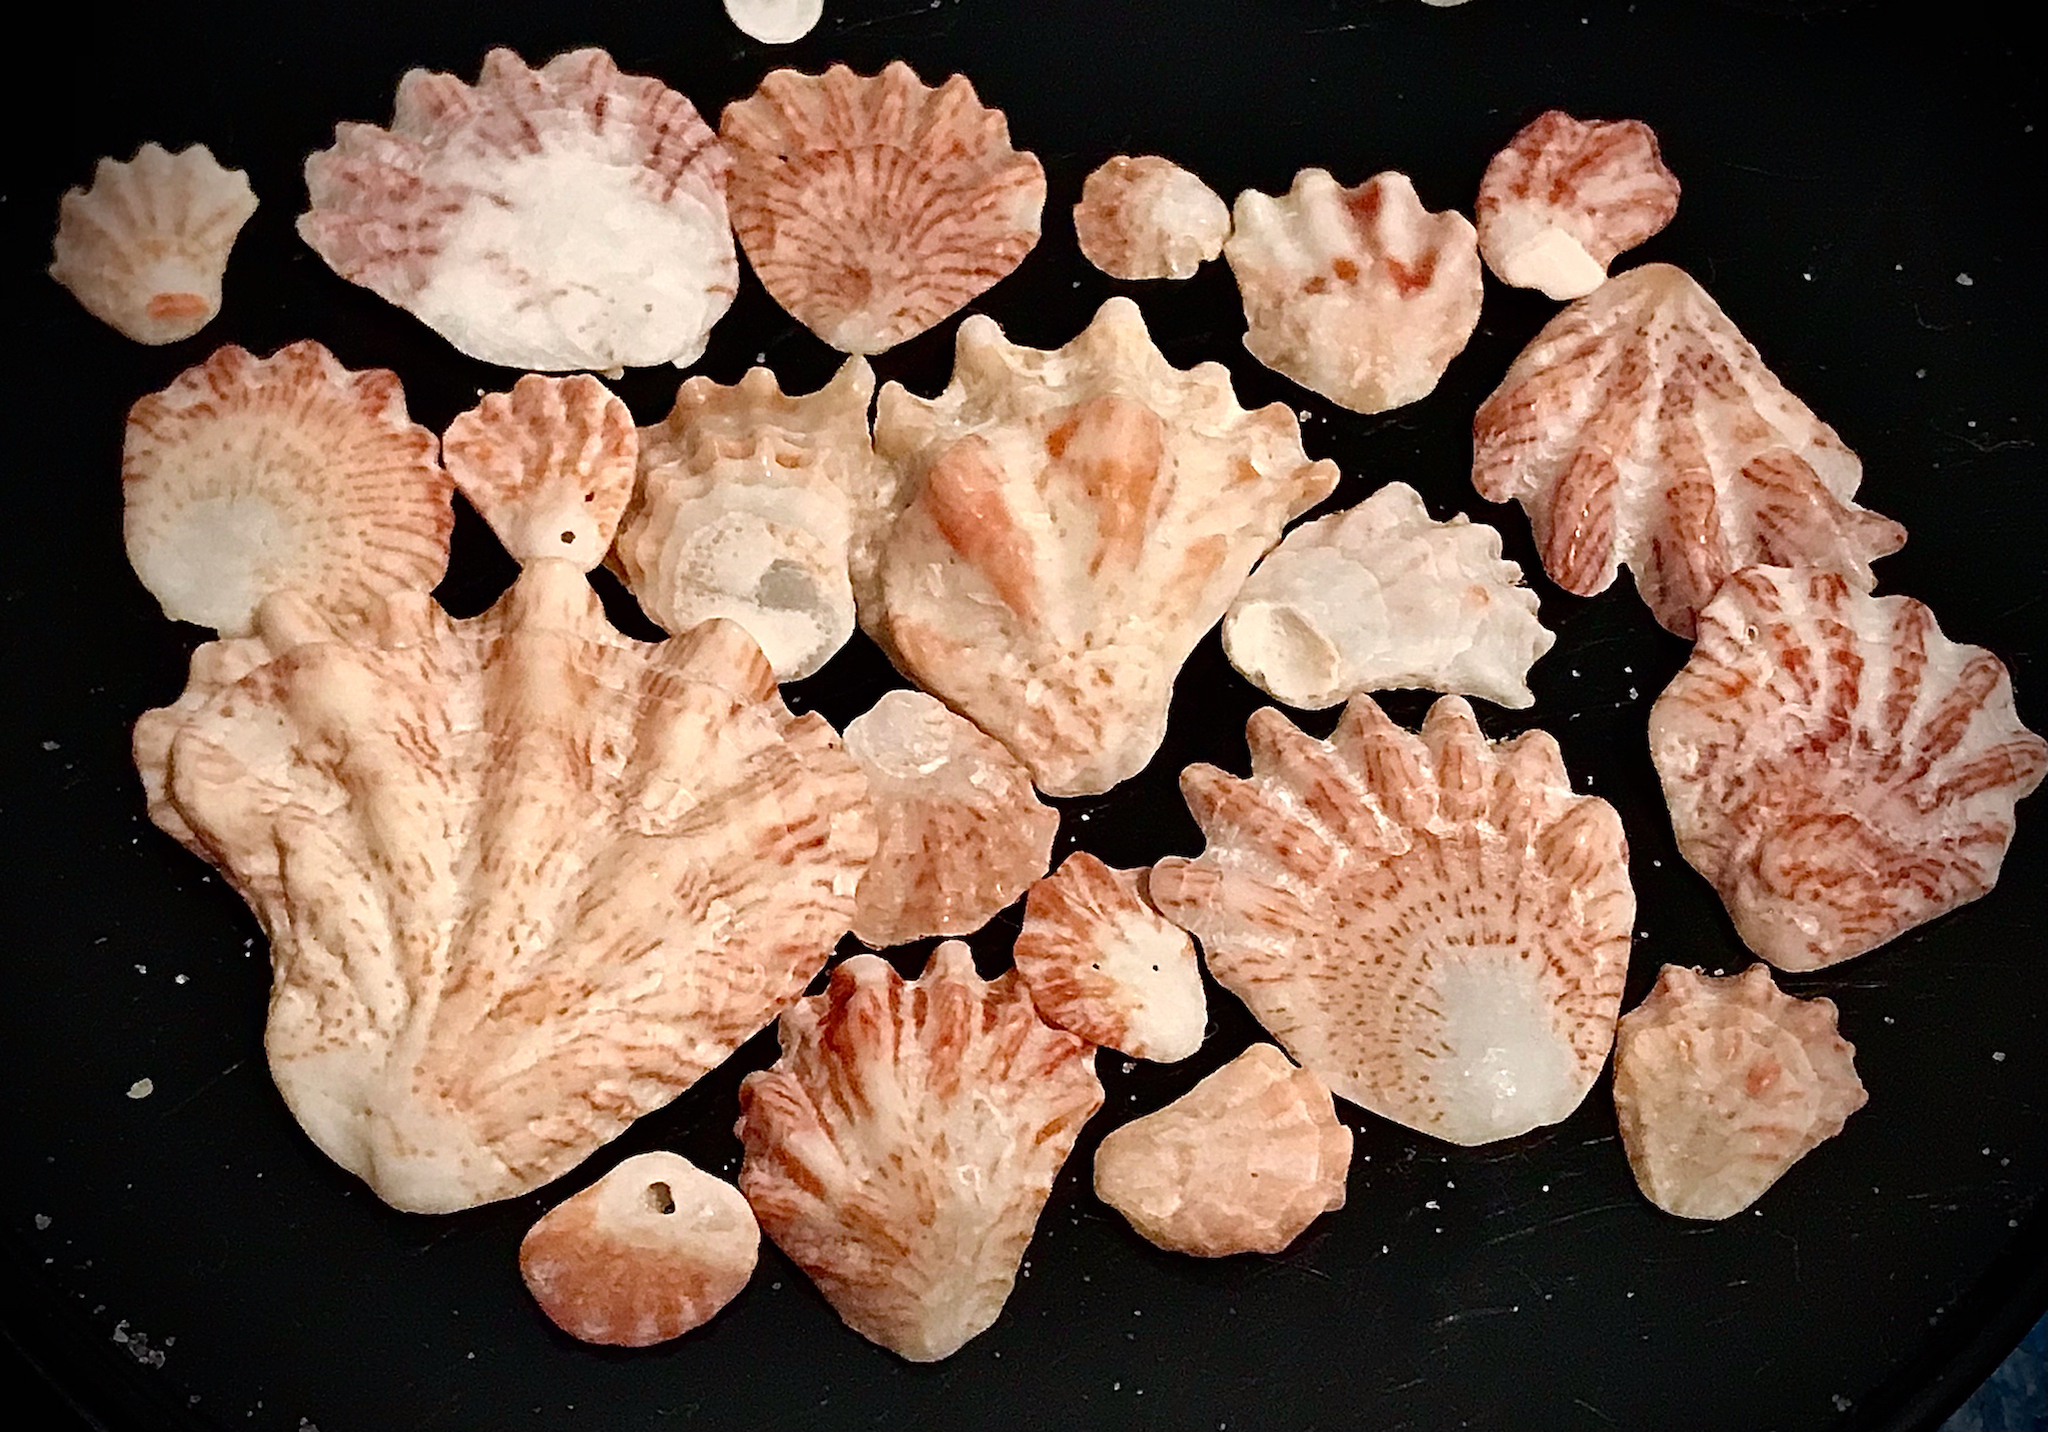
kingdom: Animalia
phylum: Mollusca
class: Bivalvia
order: Pectinida
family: Plicatulidae
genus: Plicatula
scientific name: Plicatula gibbosa
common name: Atlantic kitten's paw
